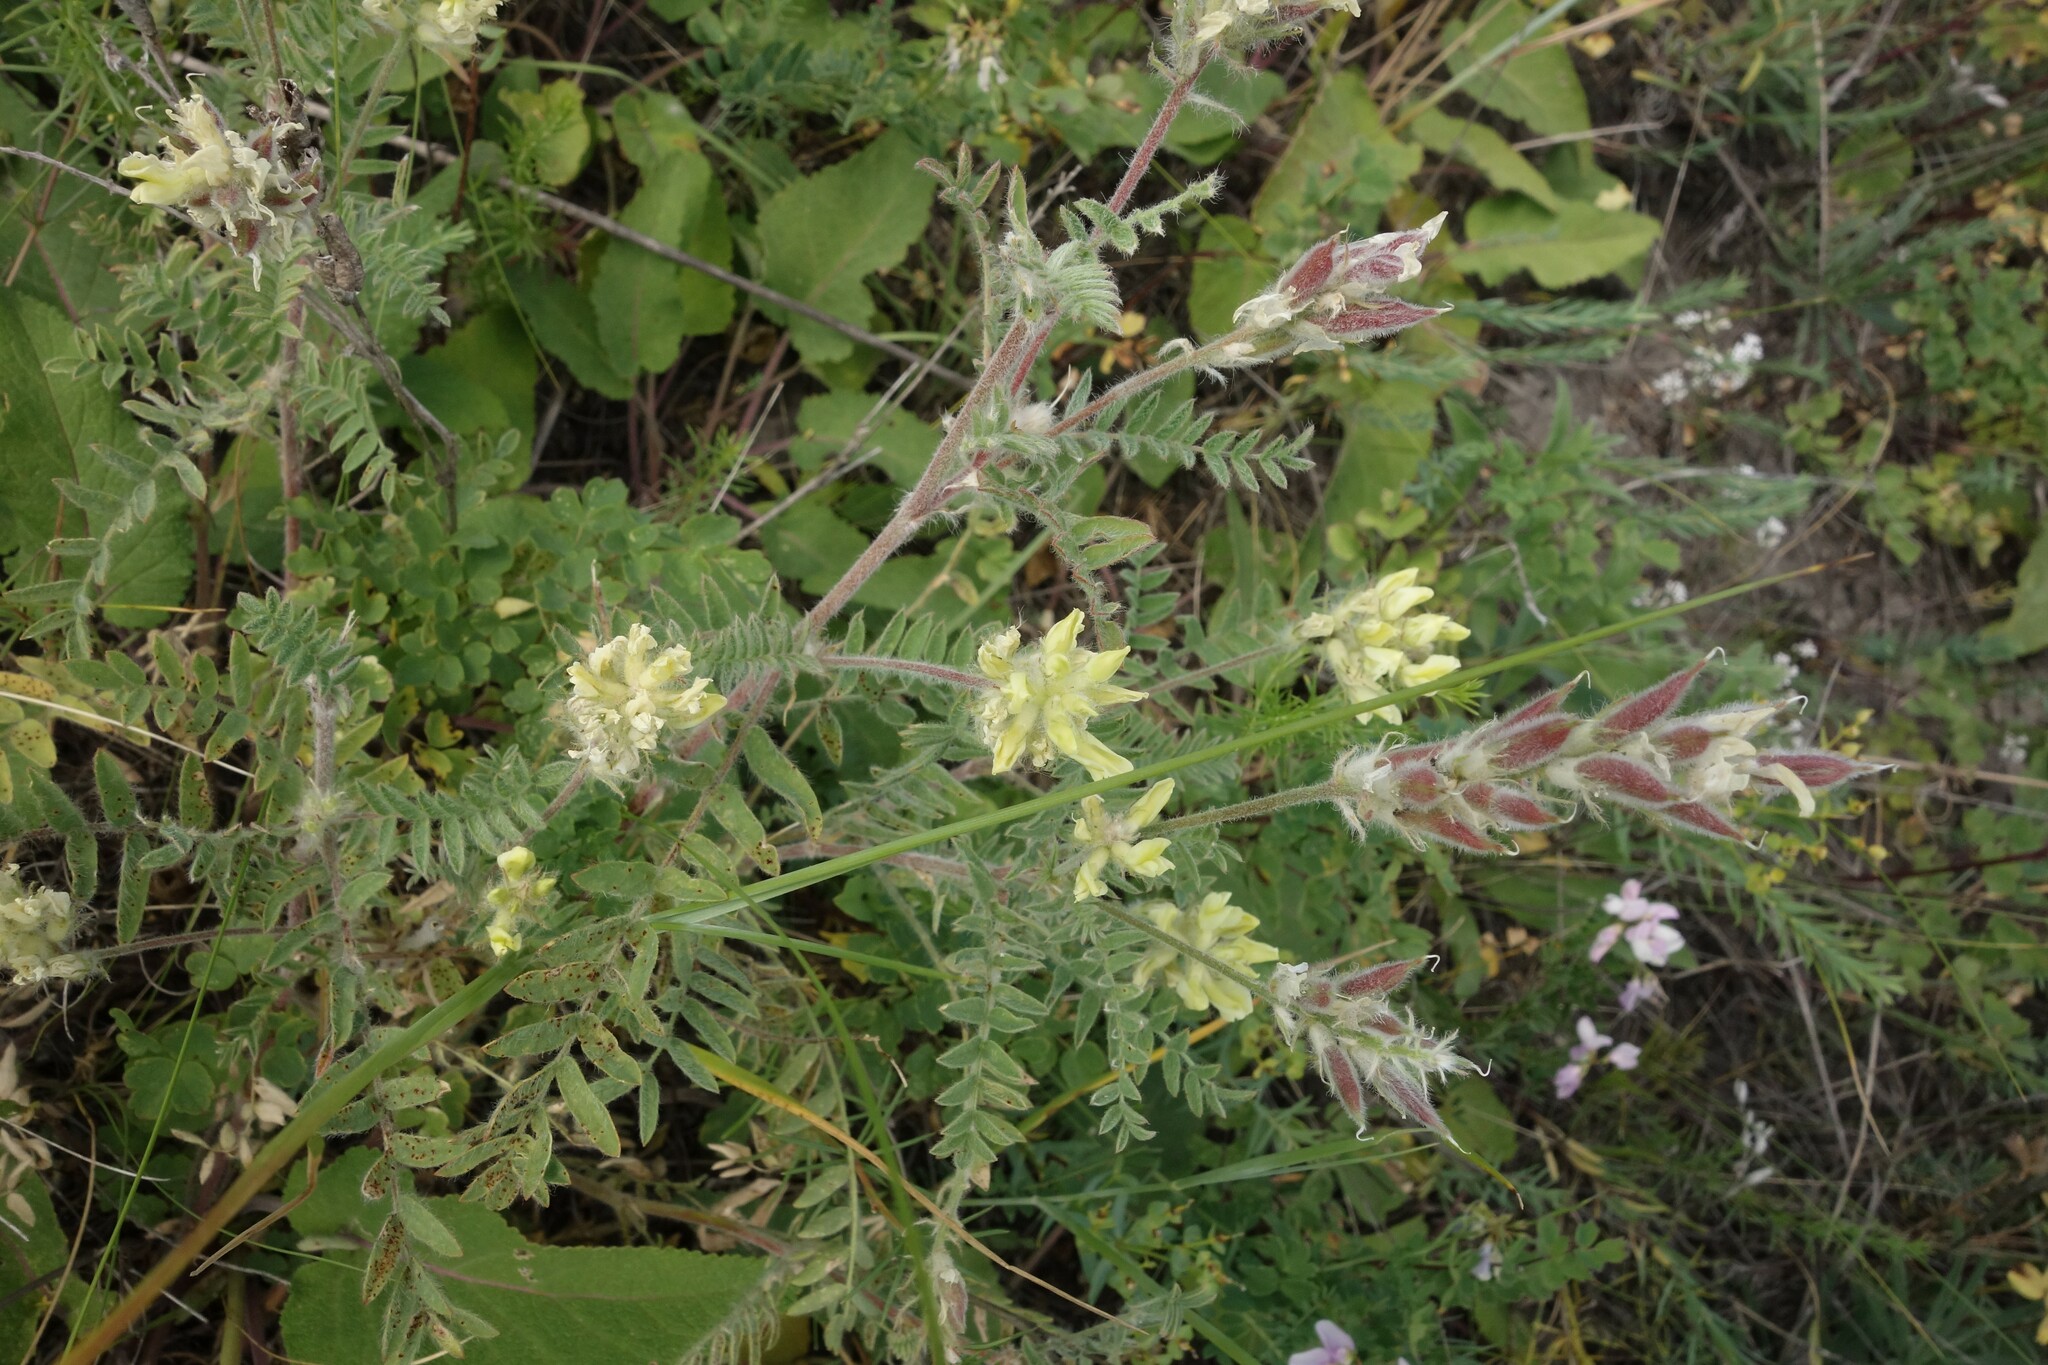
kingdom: Plantae
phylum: Tracheophyta
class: Magnoliopsida
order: Fabales
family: Fabaceae
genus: Oxytropis
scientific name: Oxytropis pilosa
